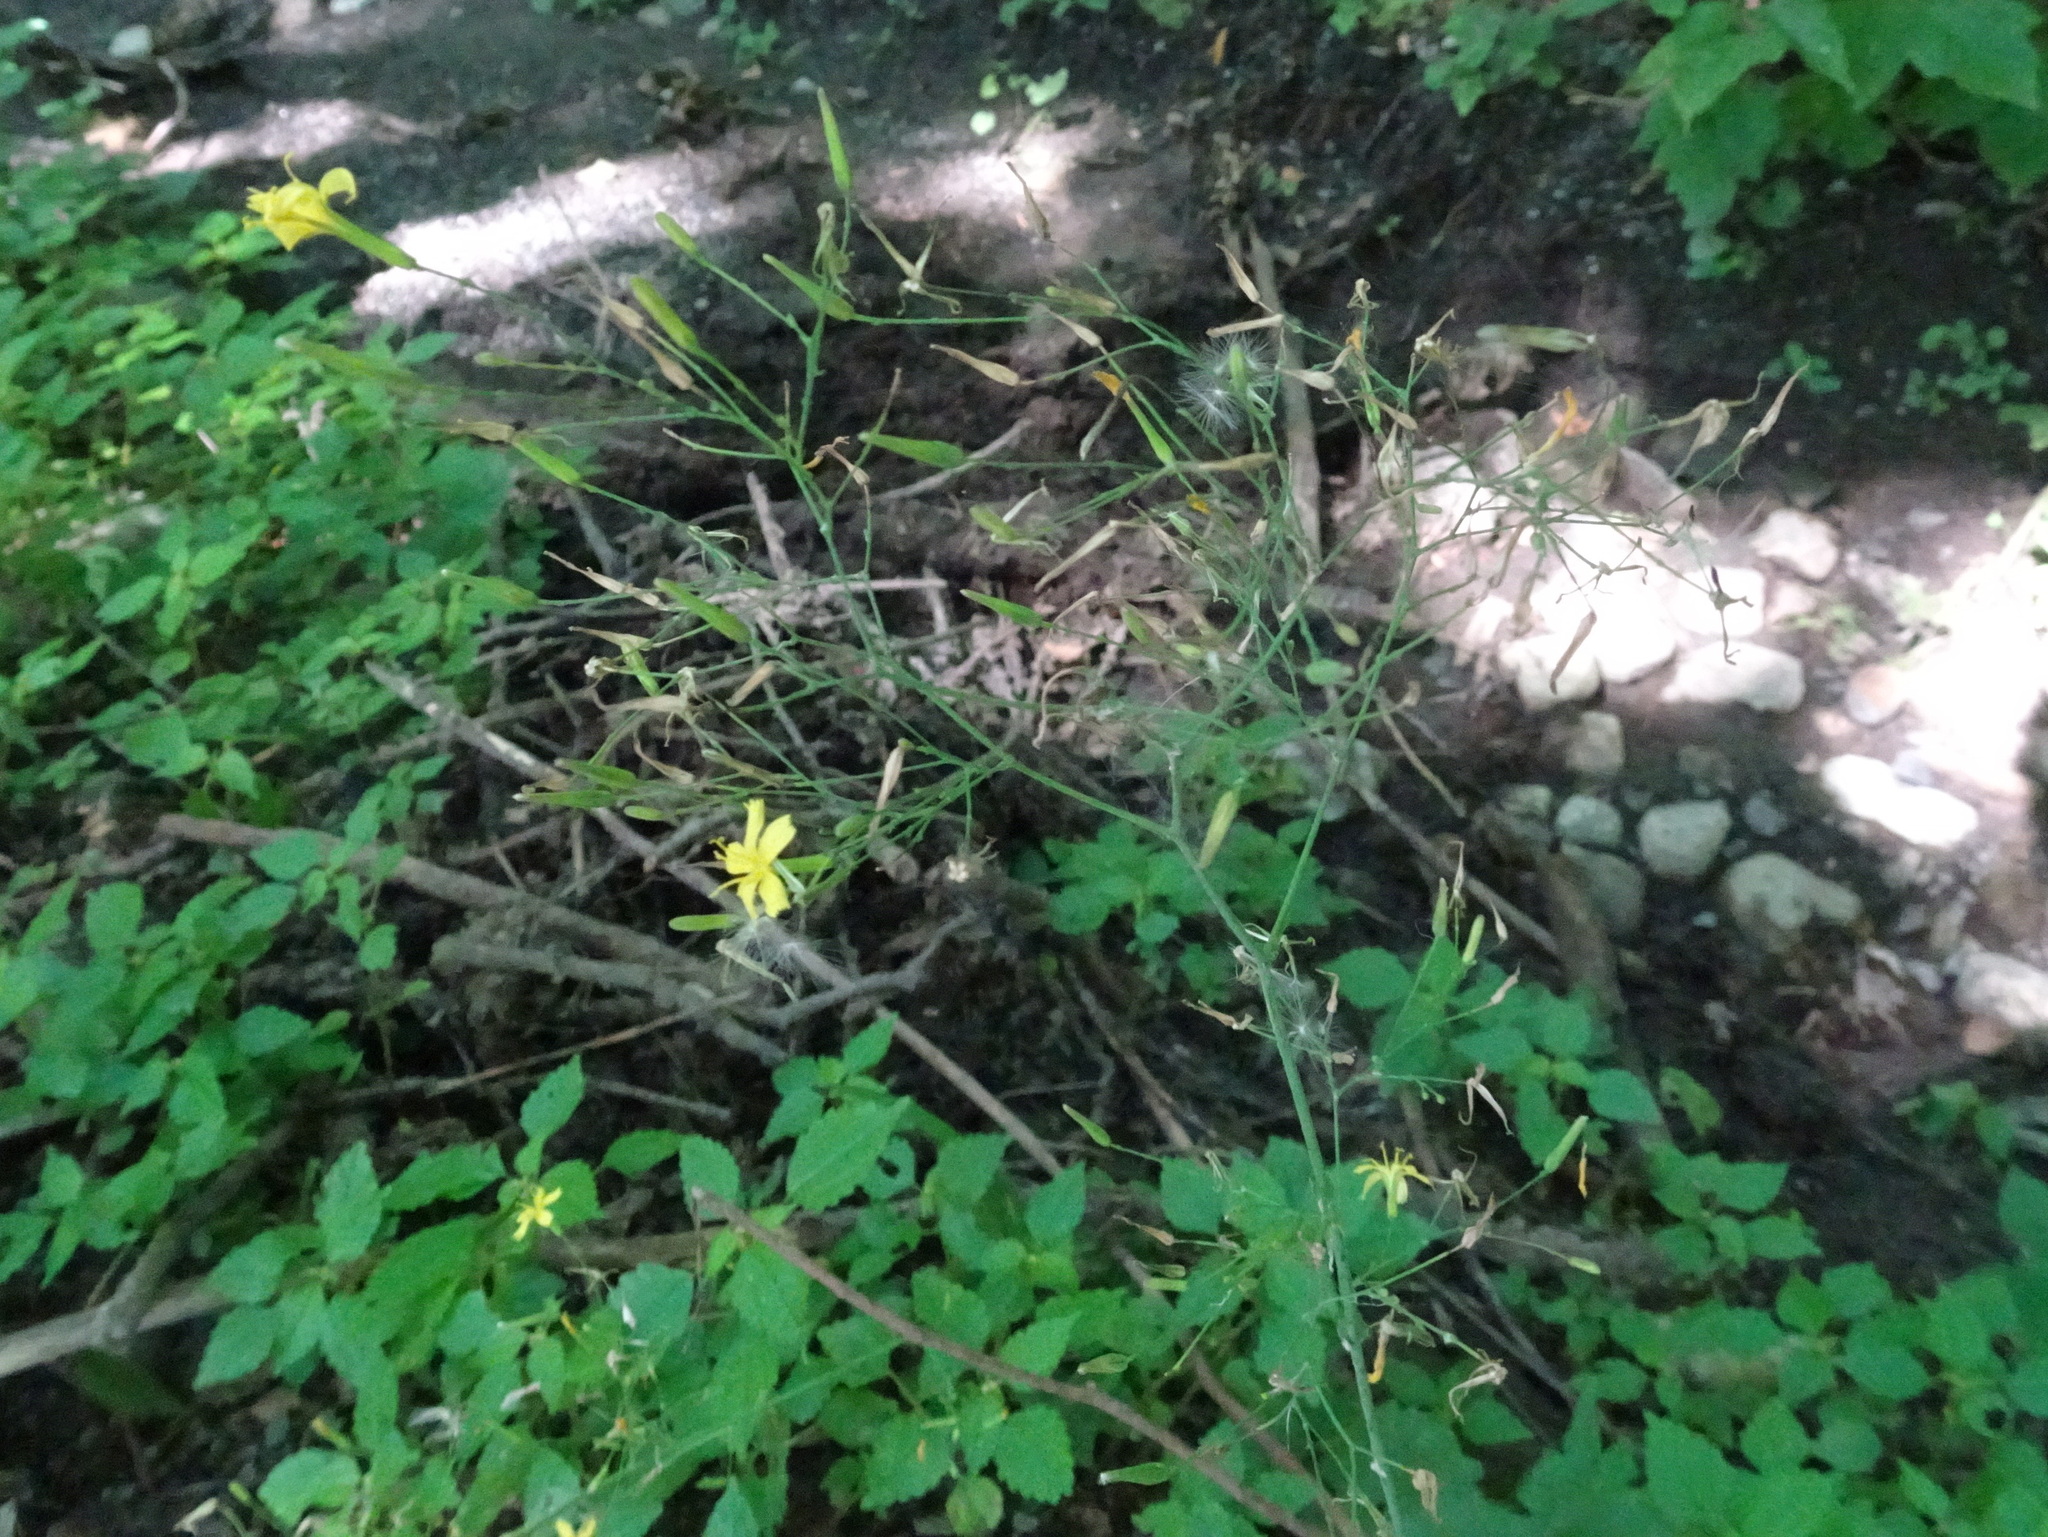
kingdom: Plantae
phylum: Tracheophyta
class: Magnoliopsida
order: Asterales
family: Asteraceae
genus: Mycelis
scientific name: Mycelis muralis
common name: Wall lettuce
